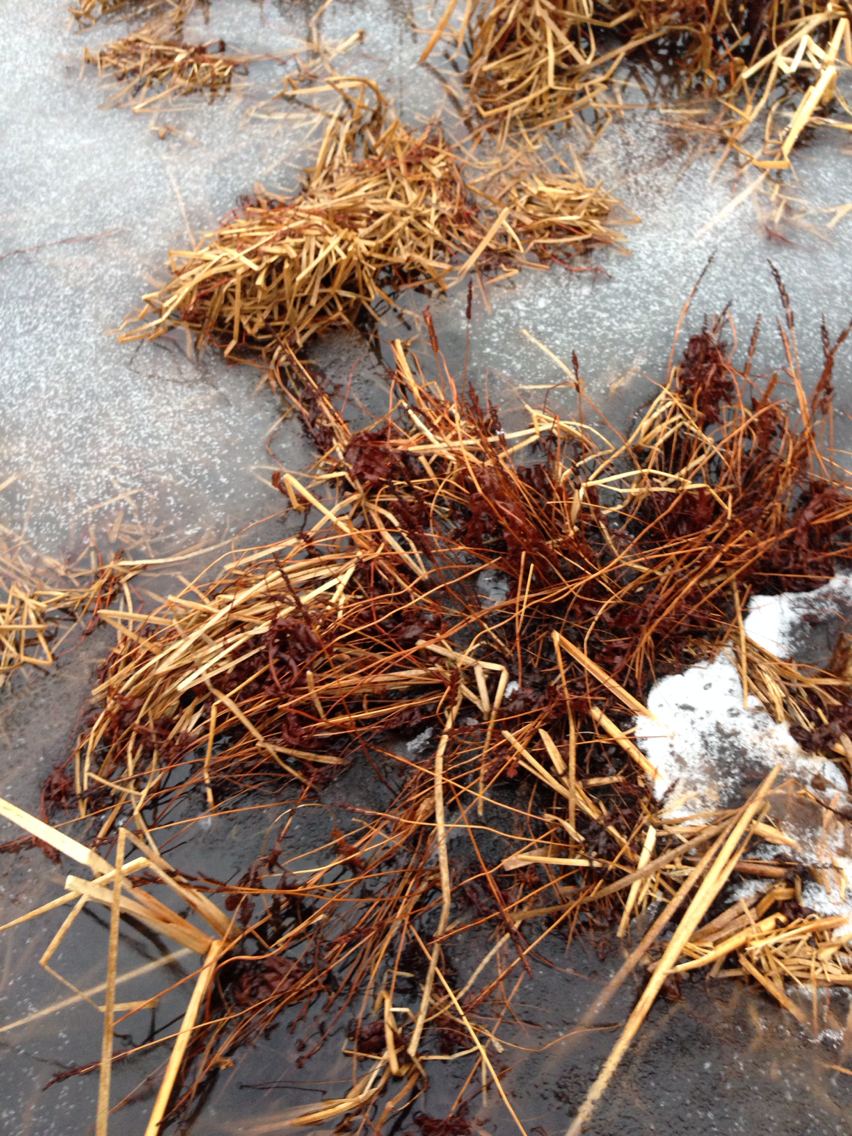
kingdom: Plantae
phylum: Tracheophyta
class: Polypodiopsida
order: Polypodiales
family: Onocleaceae
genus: Onoclea
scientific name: Onoclea sensibilis
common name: Sensitive fern
